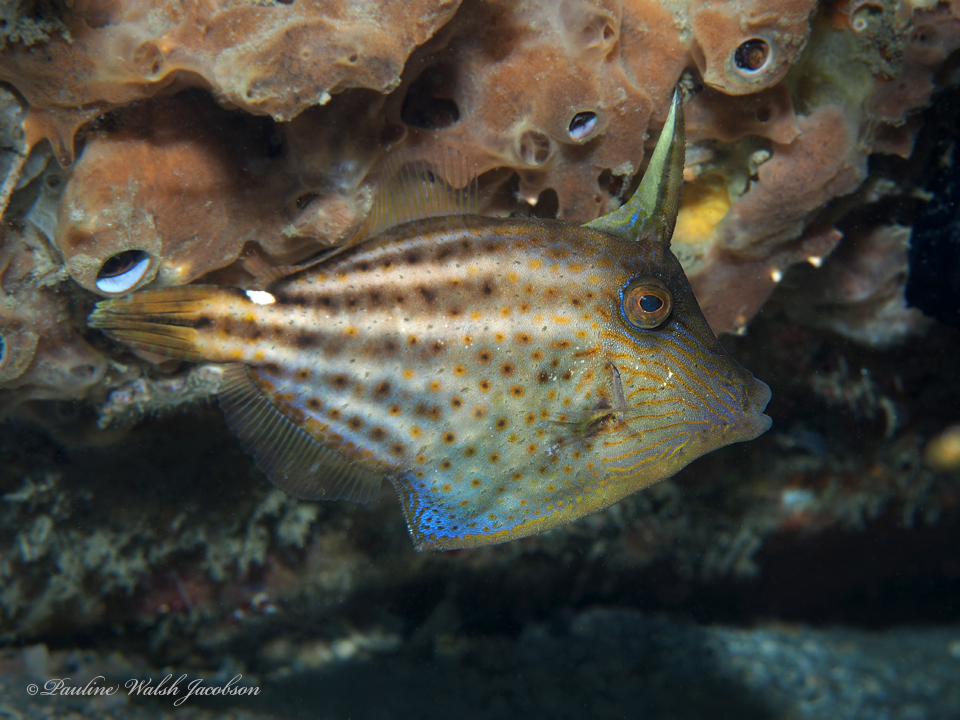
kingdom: Animalia
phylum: Chordata
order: Tetraodontiformes
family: Monacanthidae
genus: Cantherhines
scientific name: Cantherhines pullus
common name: Orangespotted filefish
